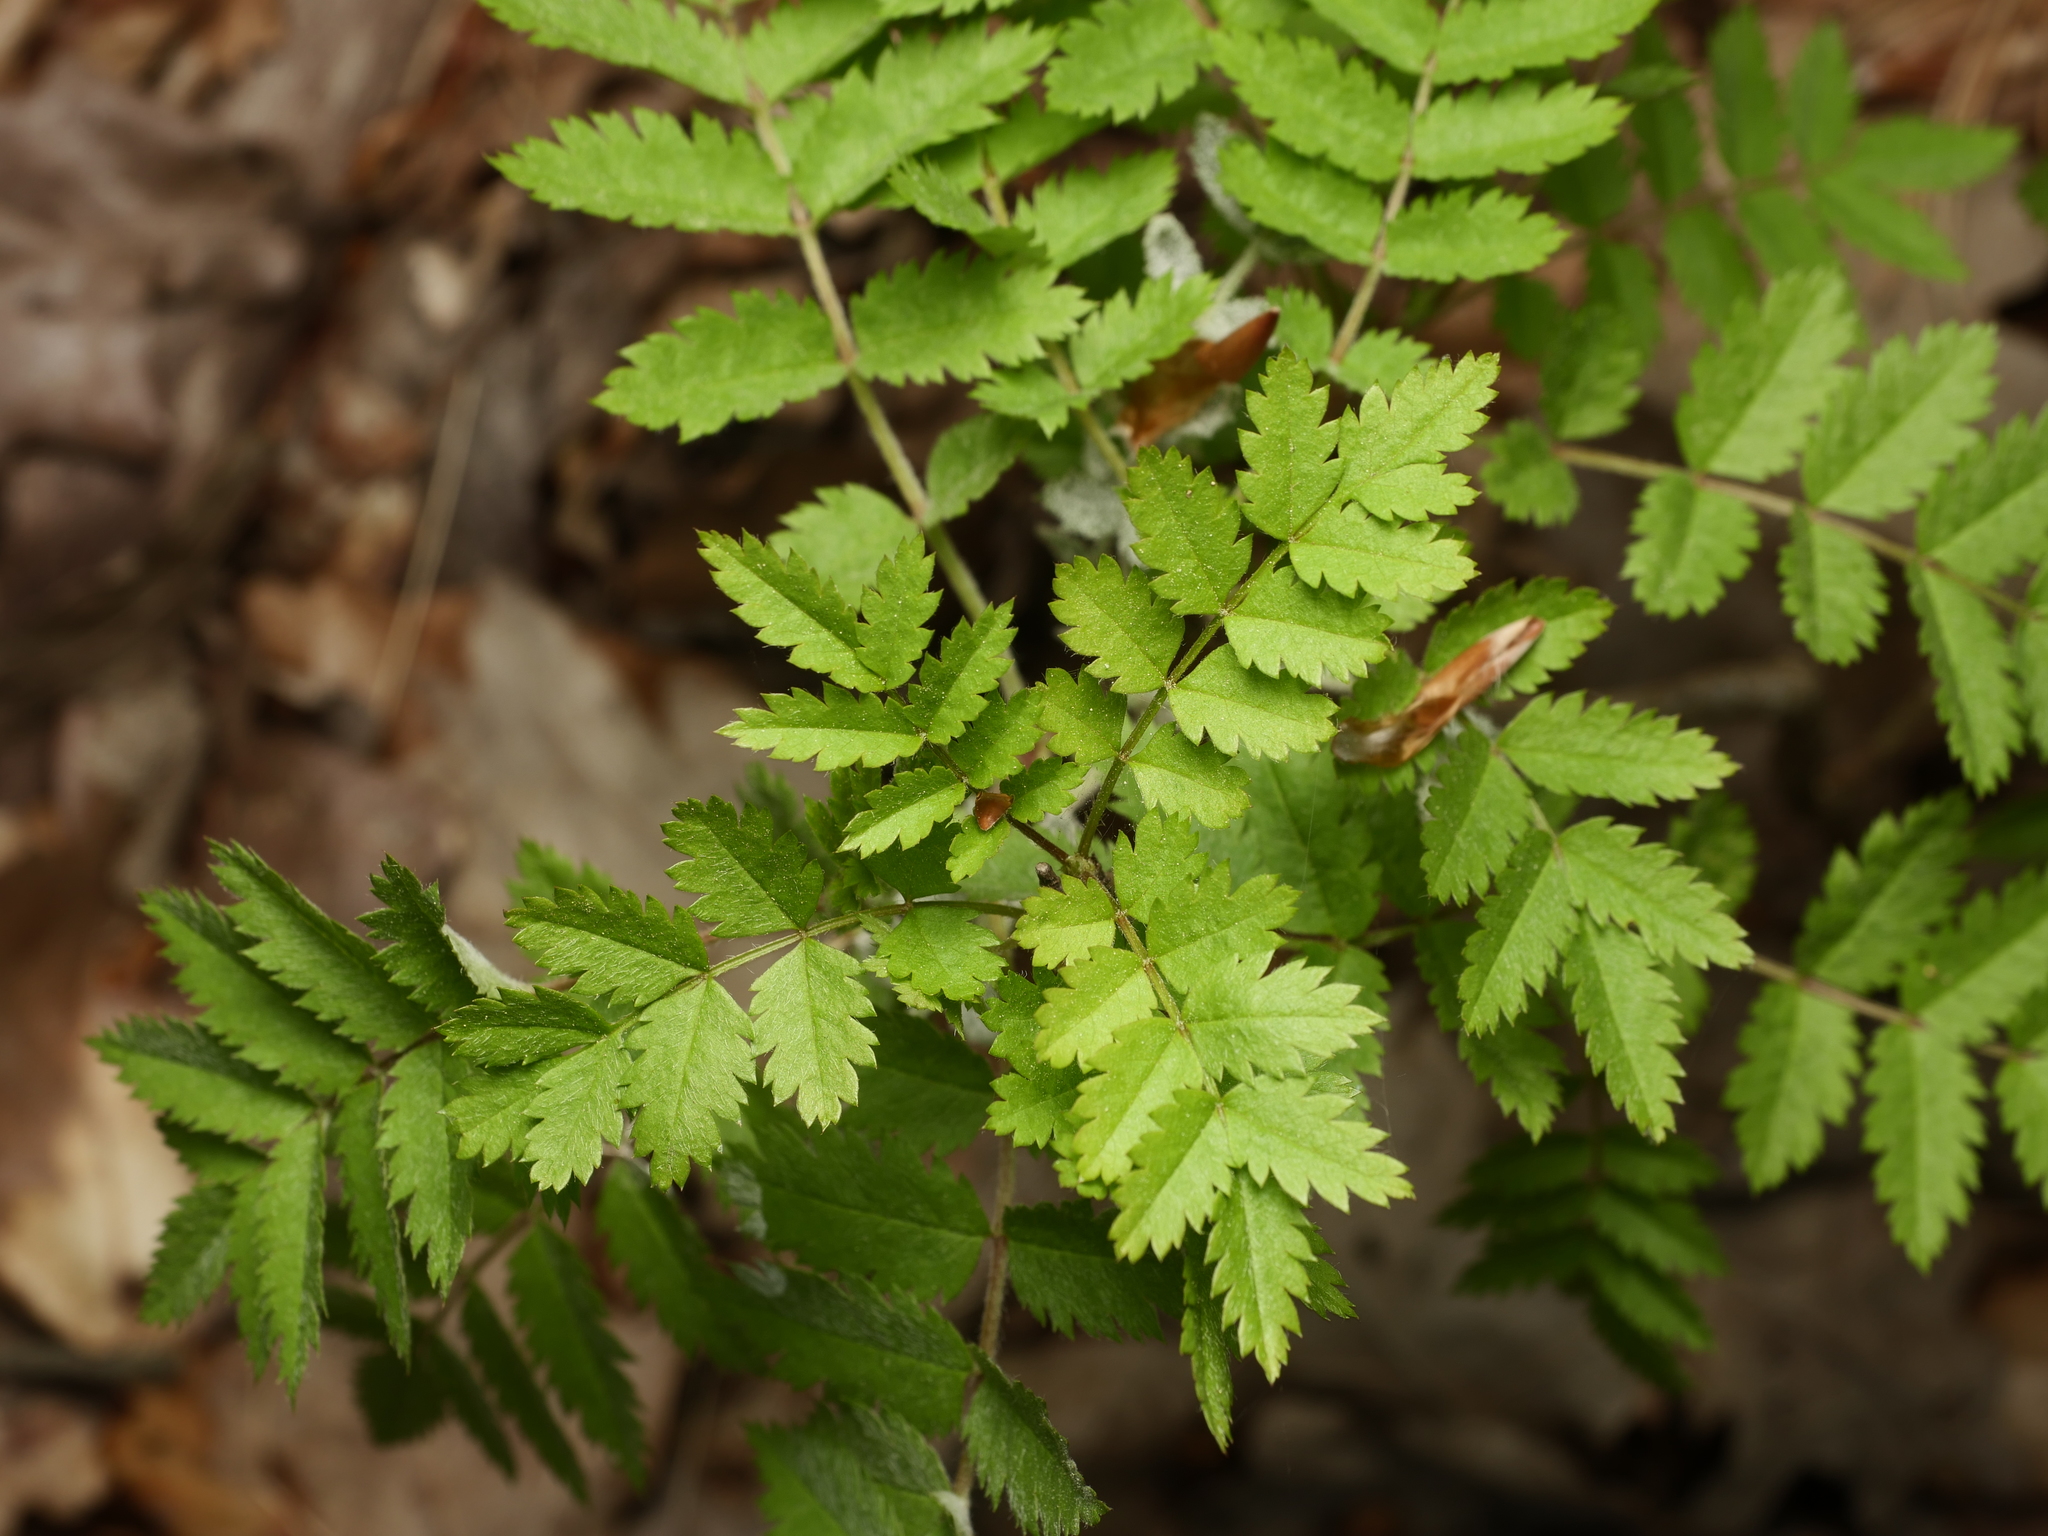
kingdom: Plantae
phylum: Tracheophyta
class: Magnoliopsida
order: Rosales
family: Rosaceae
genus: Sorbus
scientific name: Sorbus aucuparia
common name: Rowan
